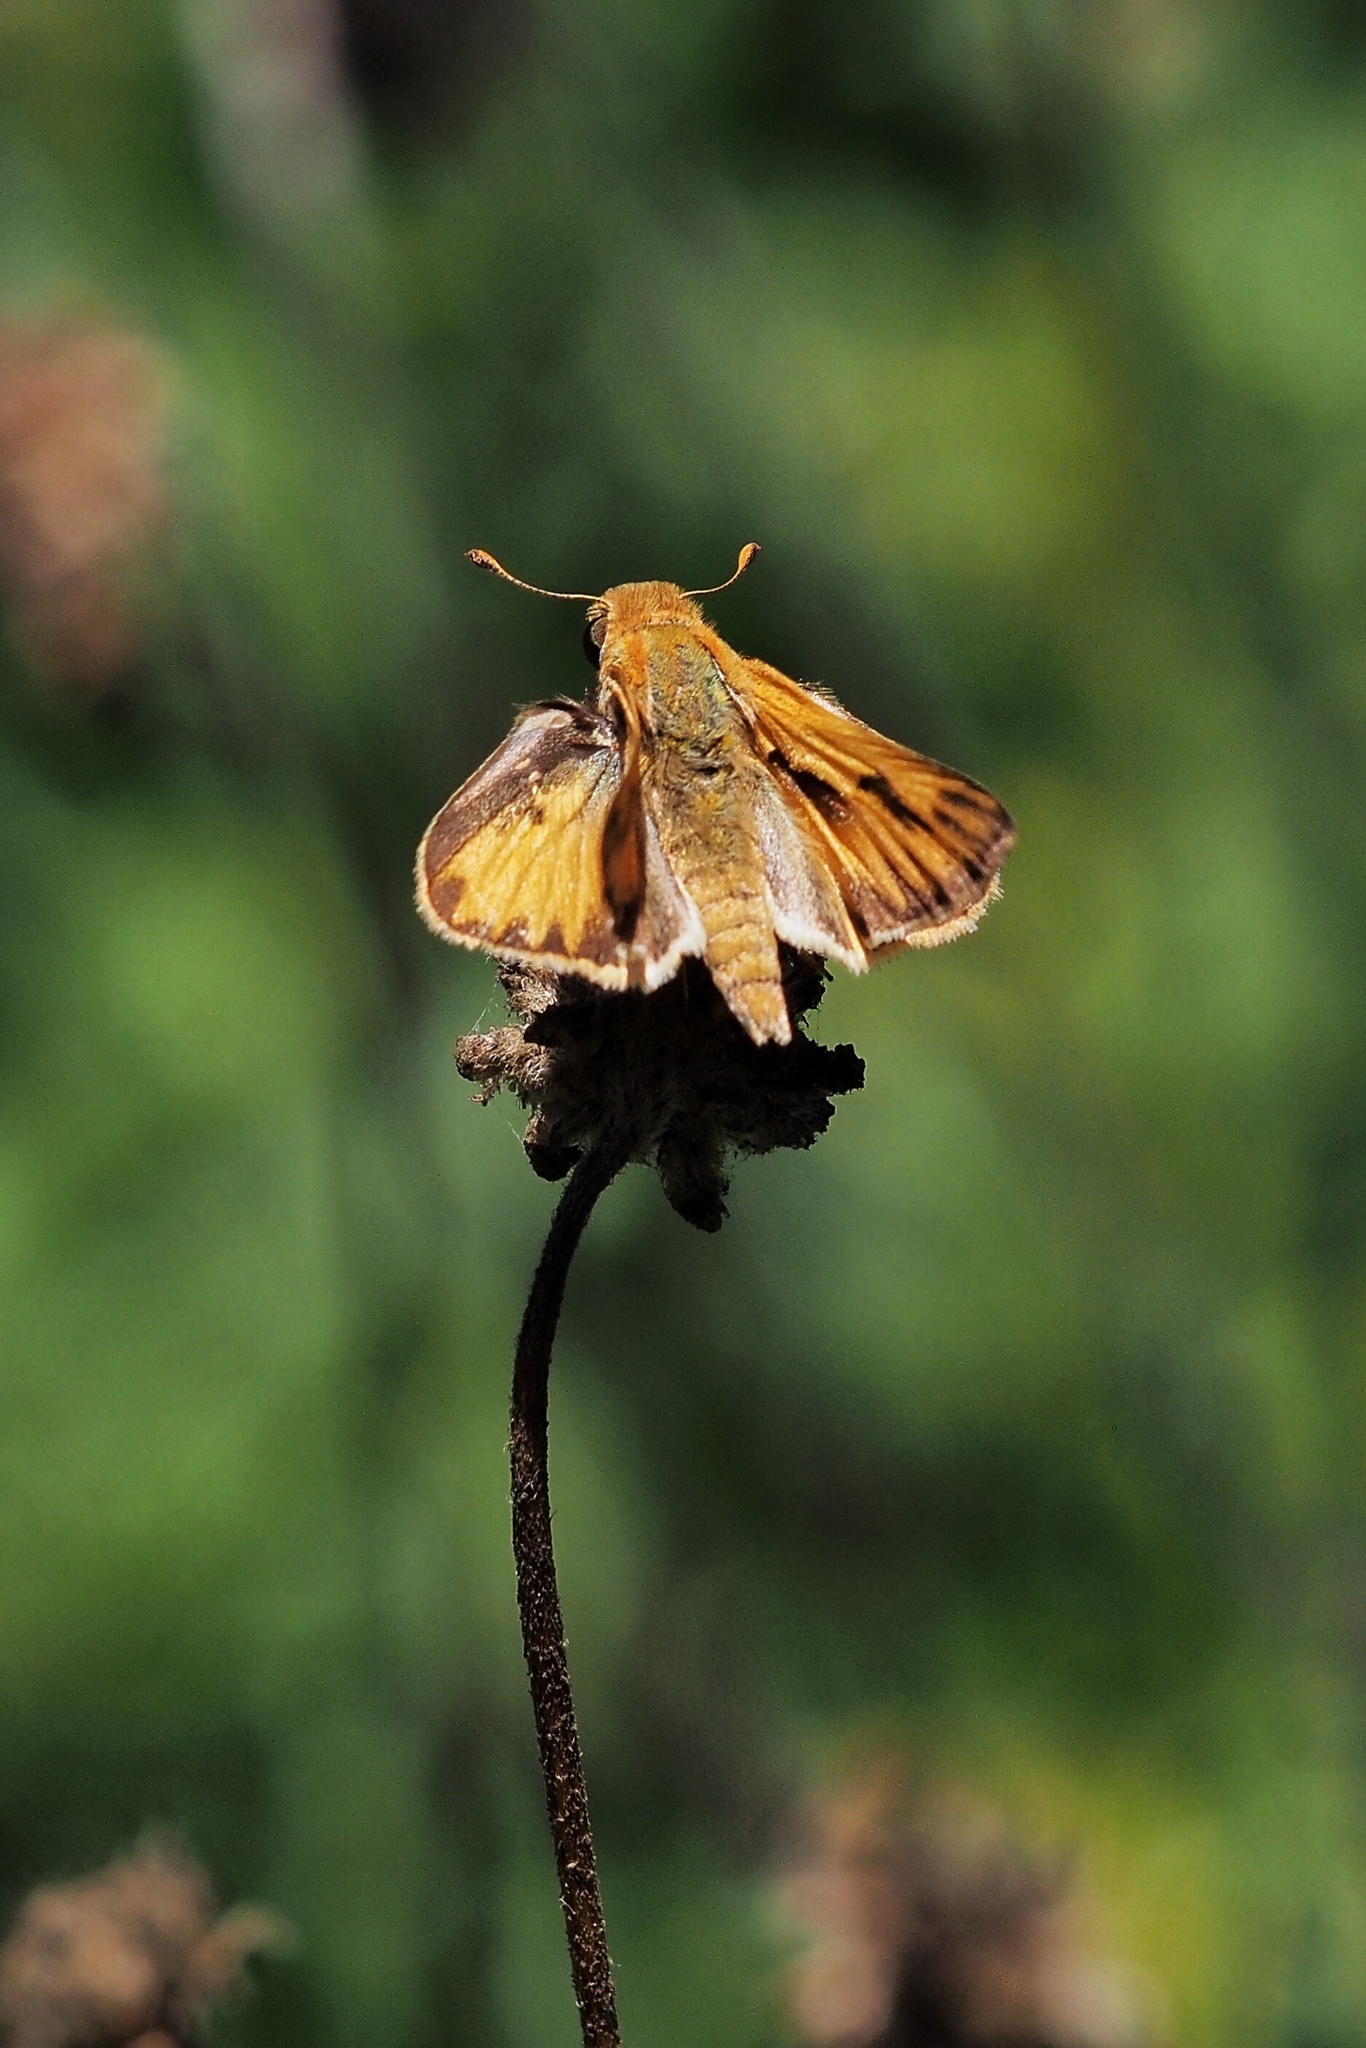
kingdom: Animalia
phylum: Arthropoda
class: Insecta
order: Lepidoptera
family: Hesperiidae
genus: Hylephila
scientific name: Hylephila phyleus
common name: Fiery skipper
